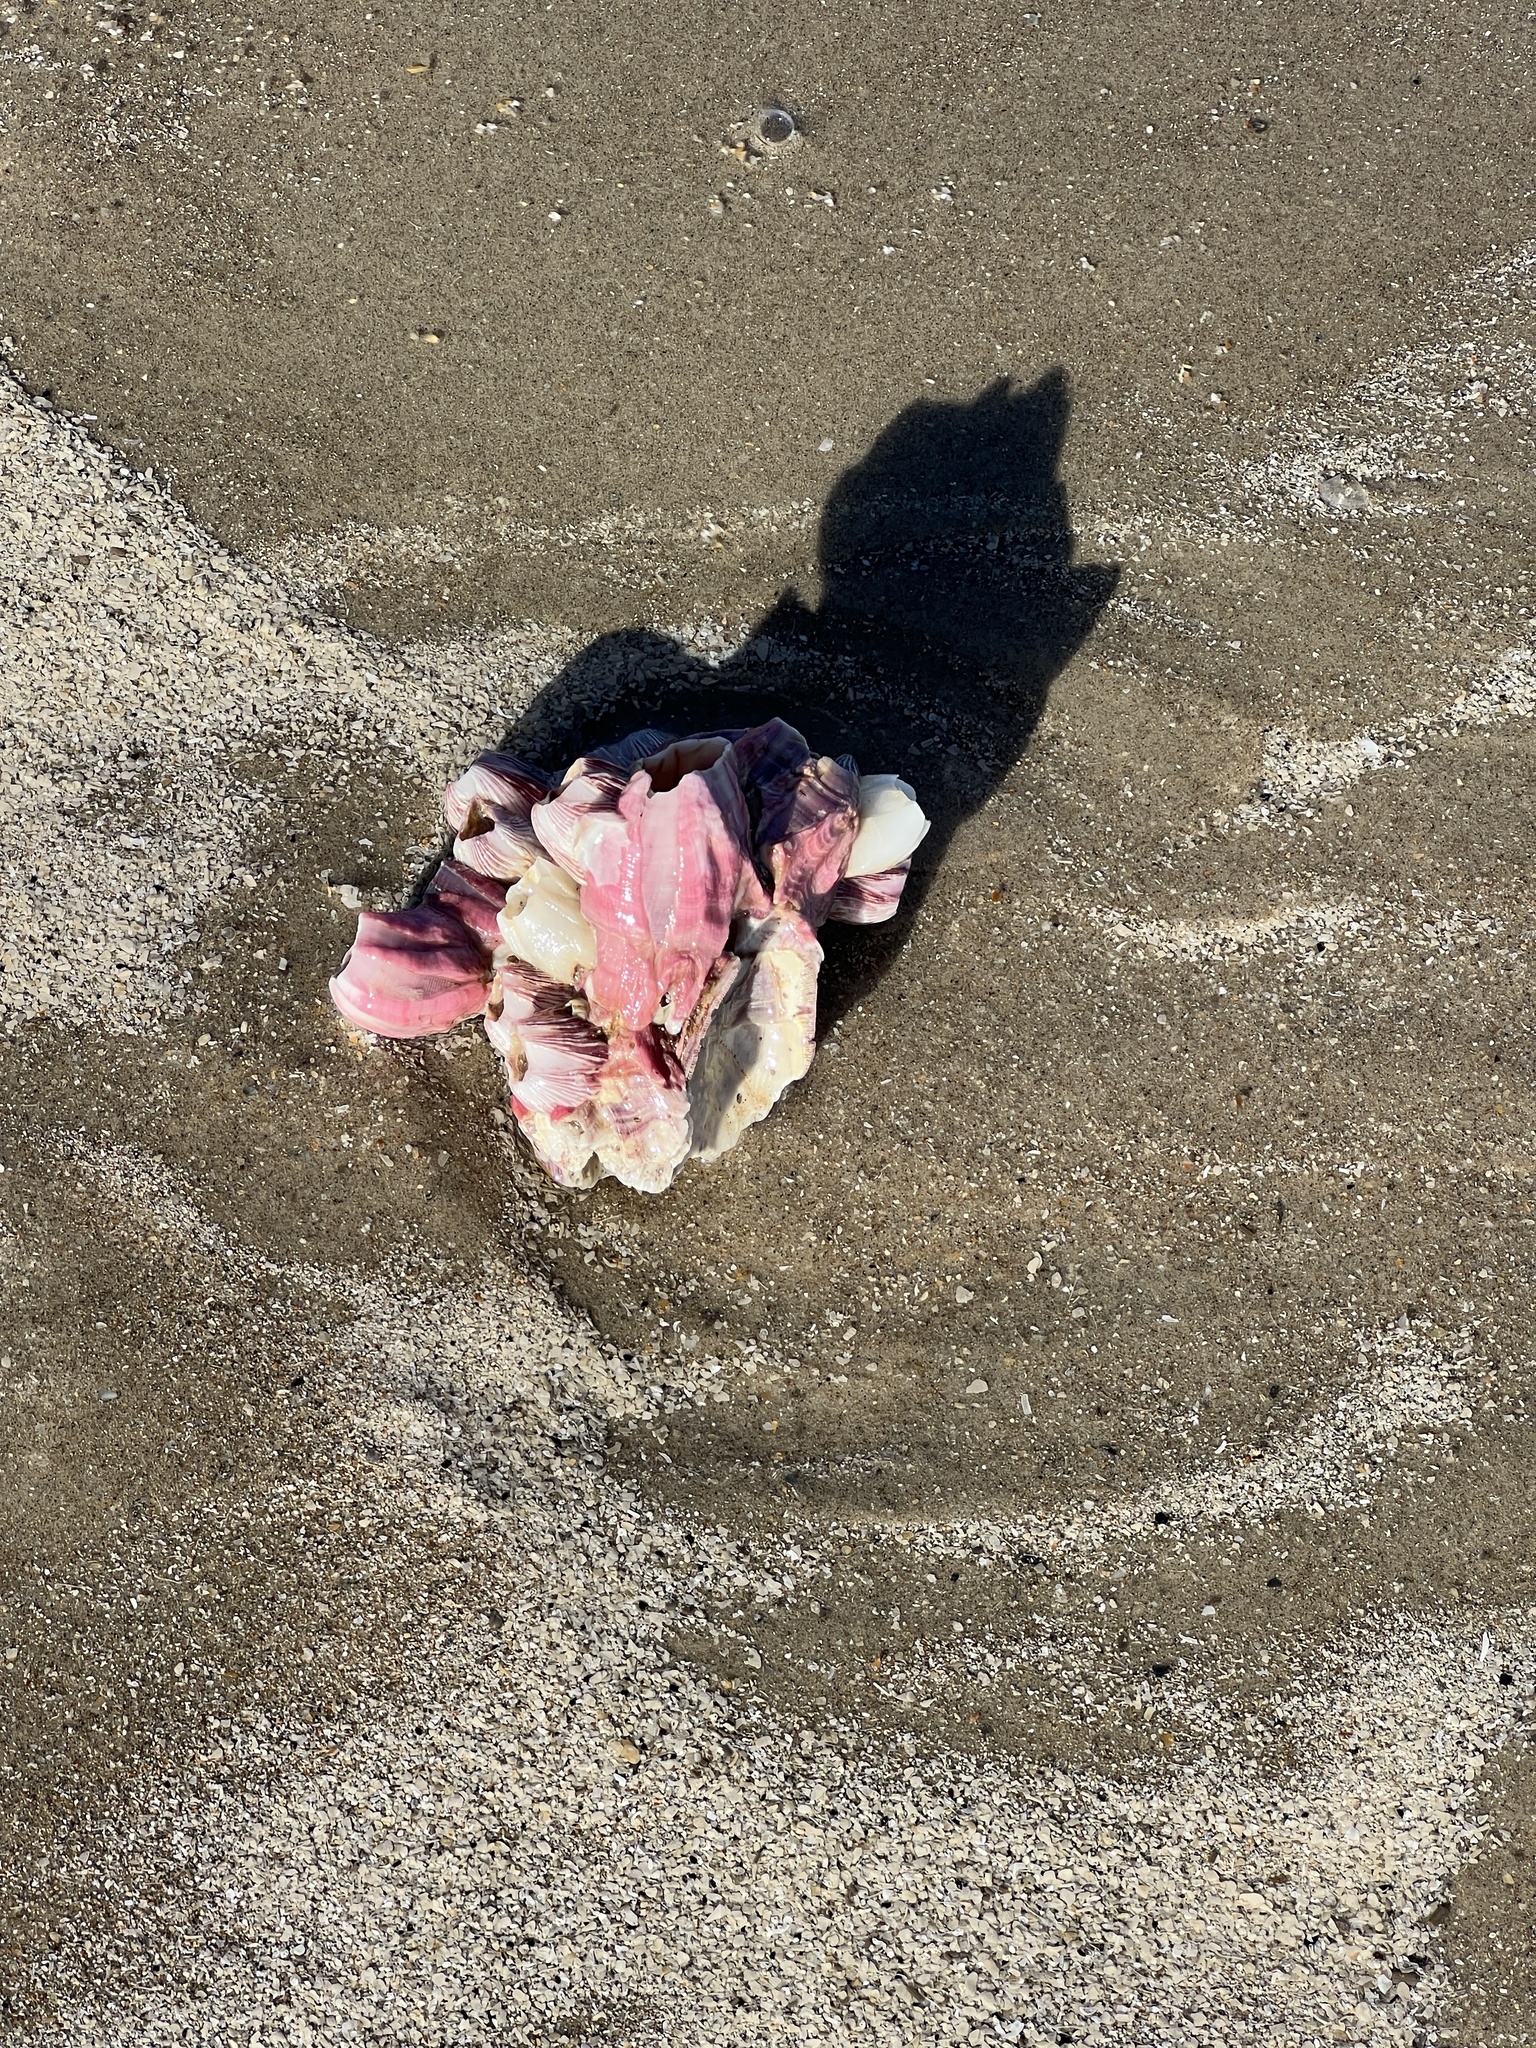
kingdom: Animalia
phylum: Arthropoda
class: Maxillopoda
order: Sessilia
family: Balanidae
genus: Megabalanus
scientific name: Megabalanus tintinnabulum
